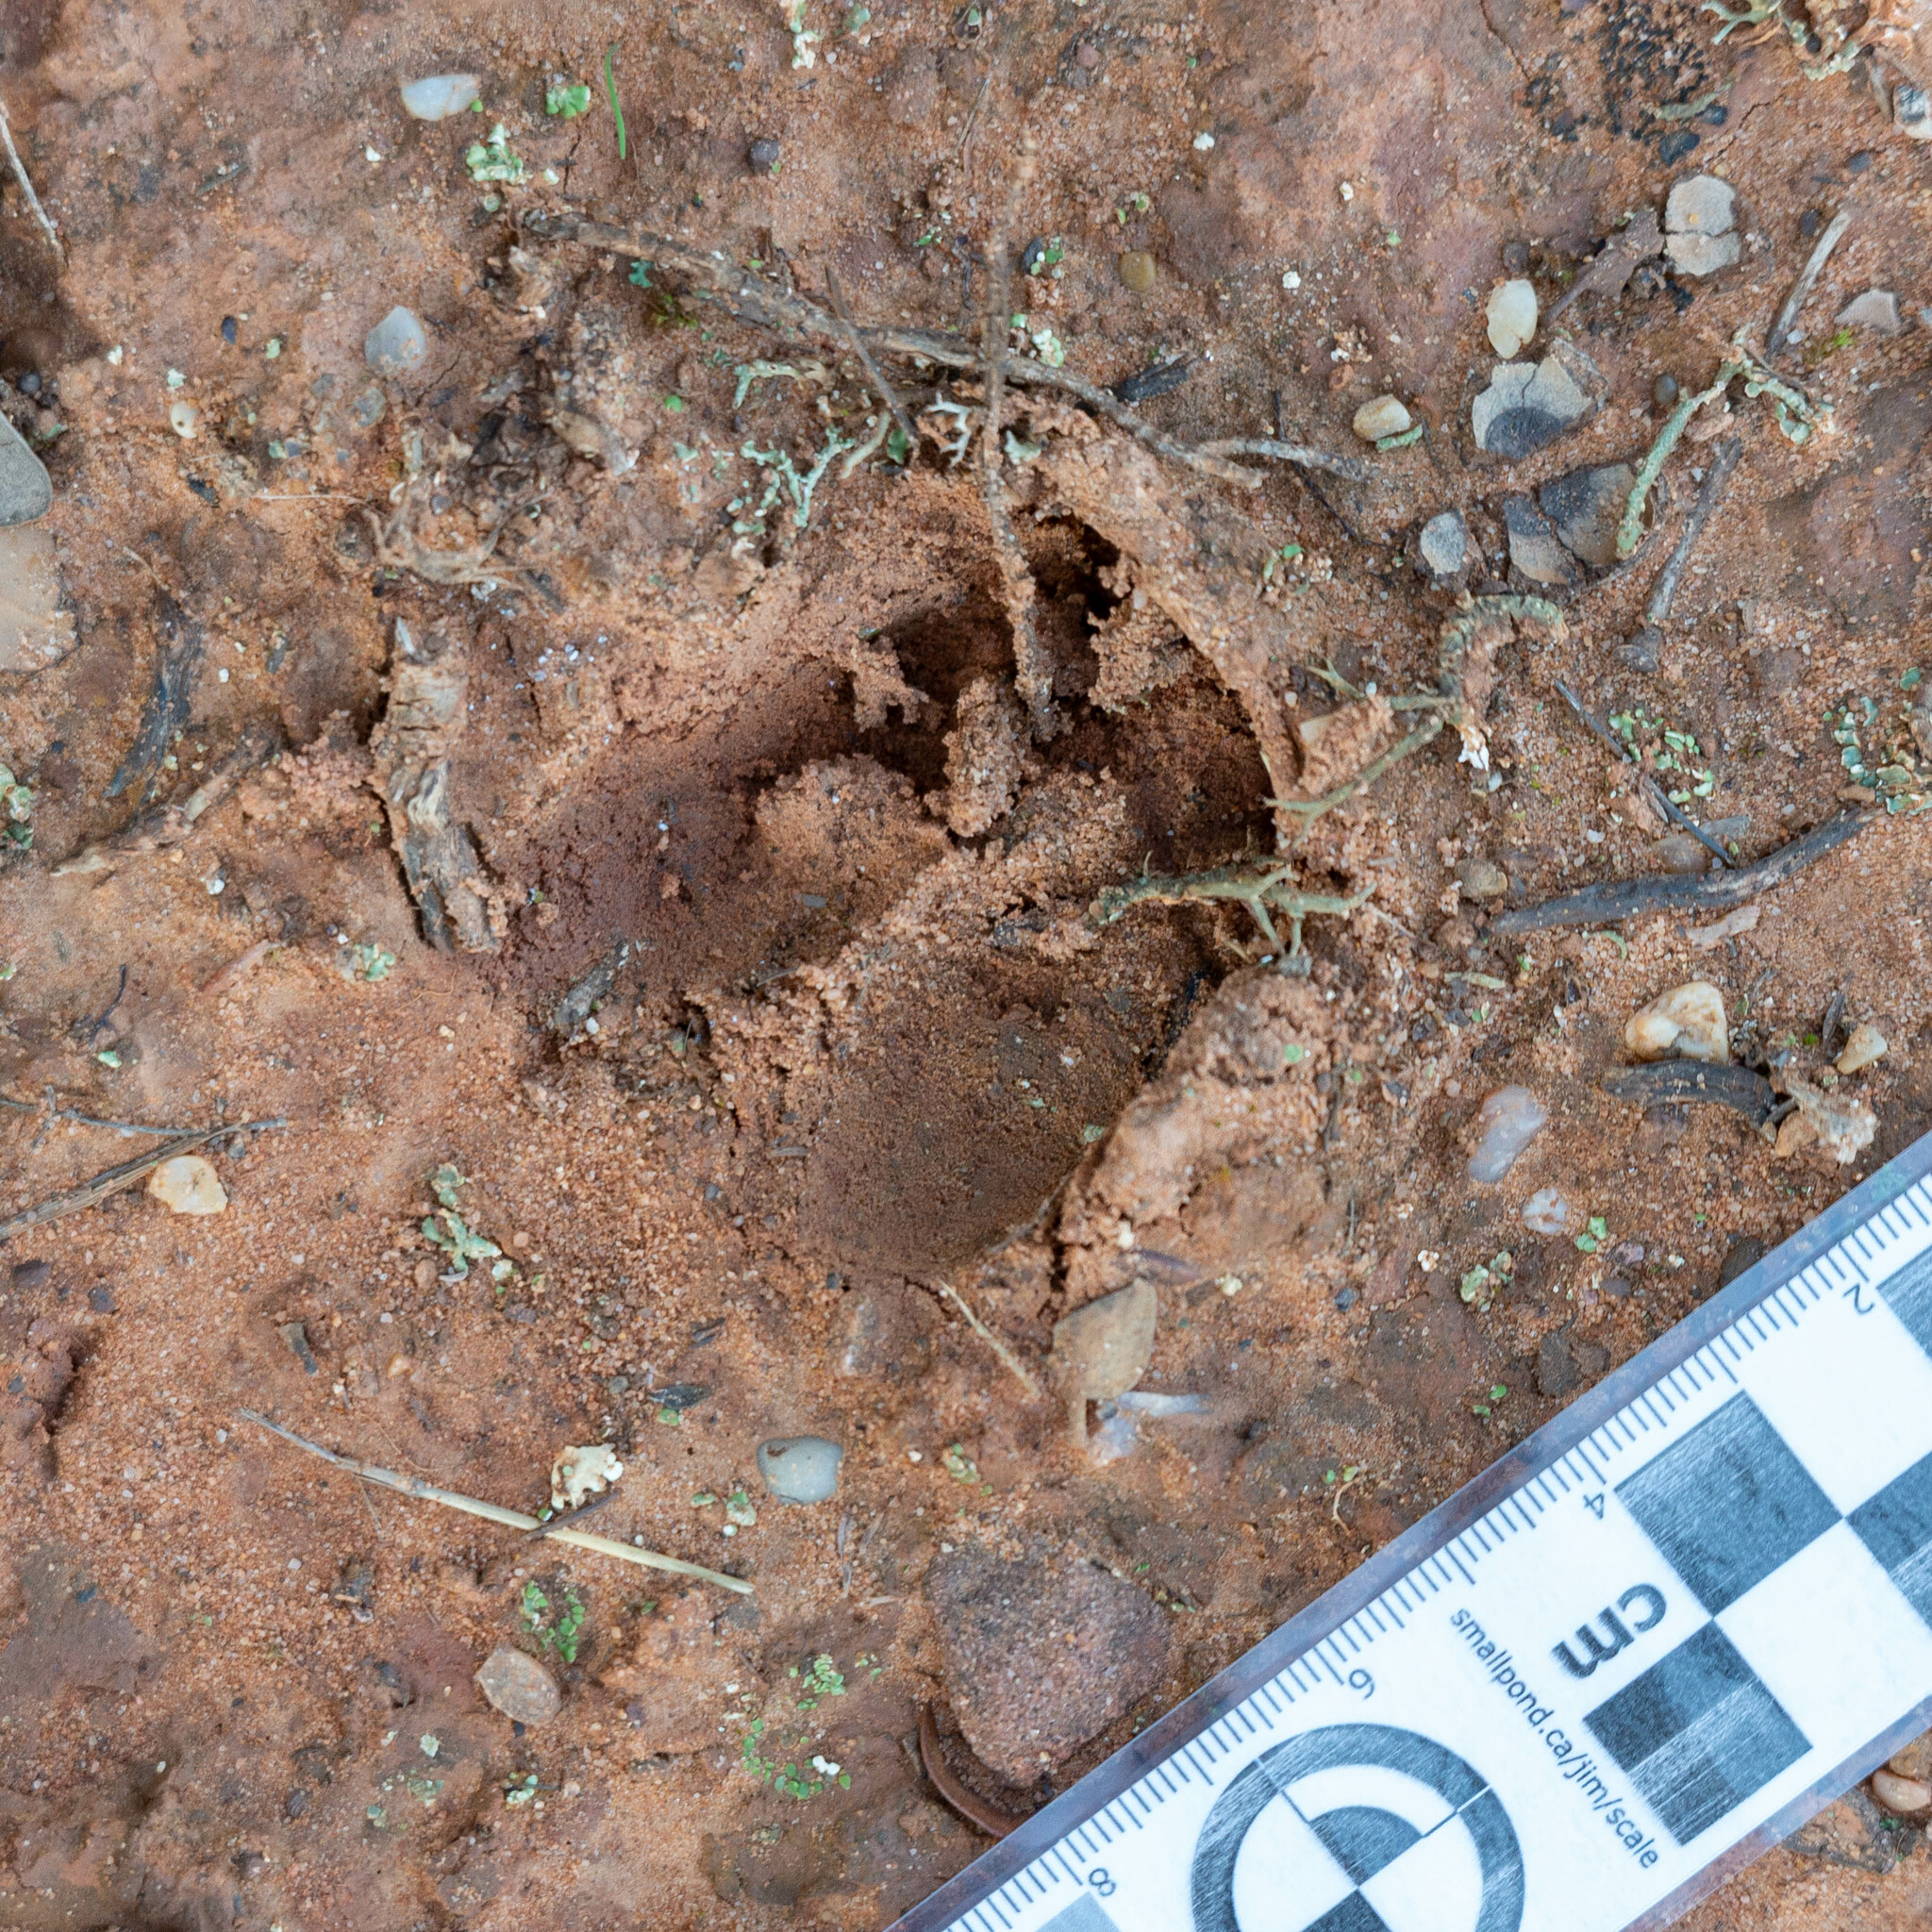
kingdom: Animalia
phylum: Chordata
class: Mammalia
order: Artiodactyla
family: Cervidae
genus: Capreolus
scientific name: Capreolus capreolus
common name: Western roe deer
